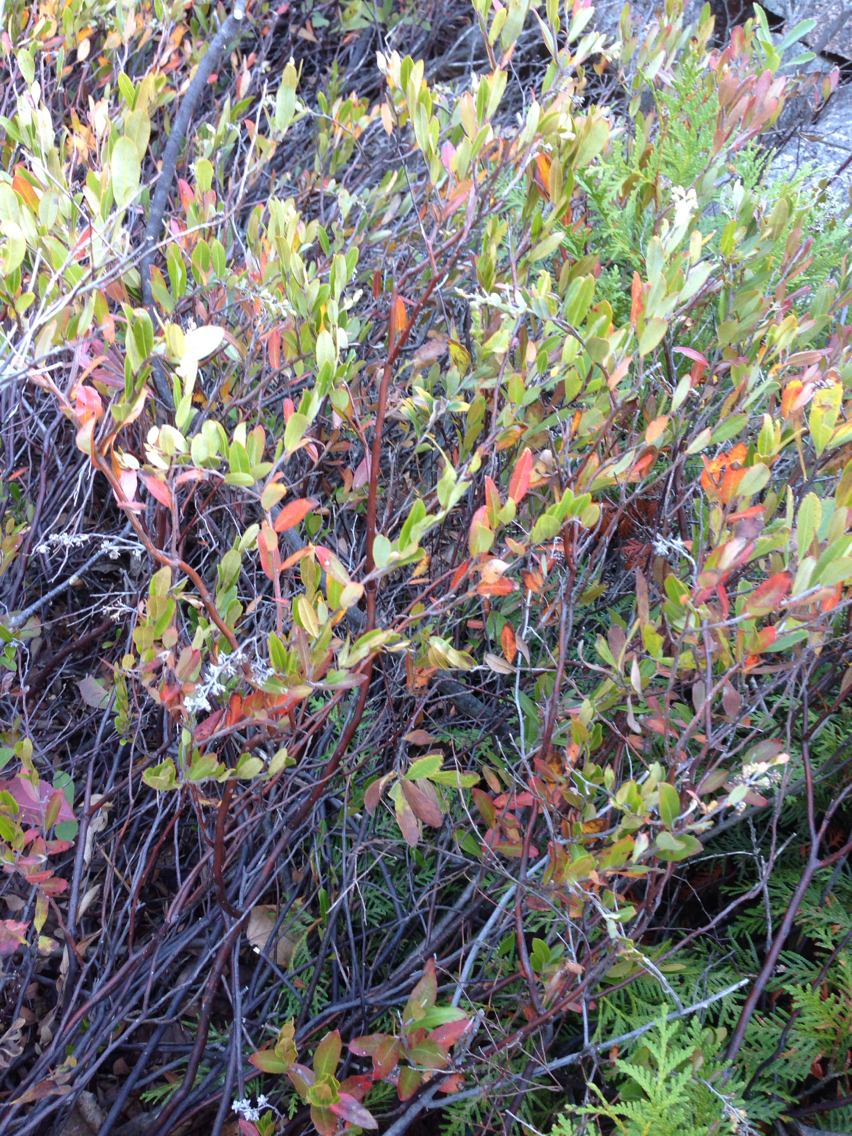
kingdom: Plantae
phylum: Tracheophyta
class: Magnoliopsida
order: Ericales
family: Ericaceae
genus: Chamaedaphne
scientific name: Chamaedaphne calyculata
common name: Leatherleaf
